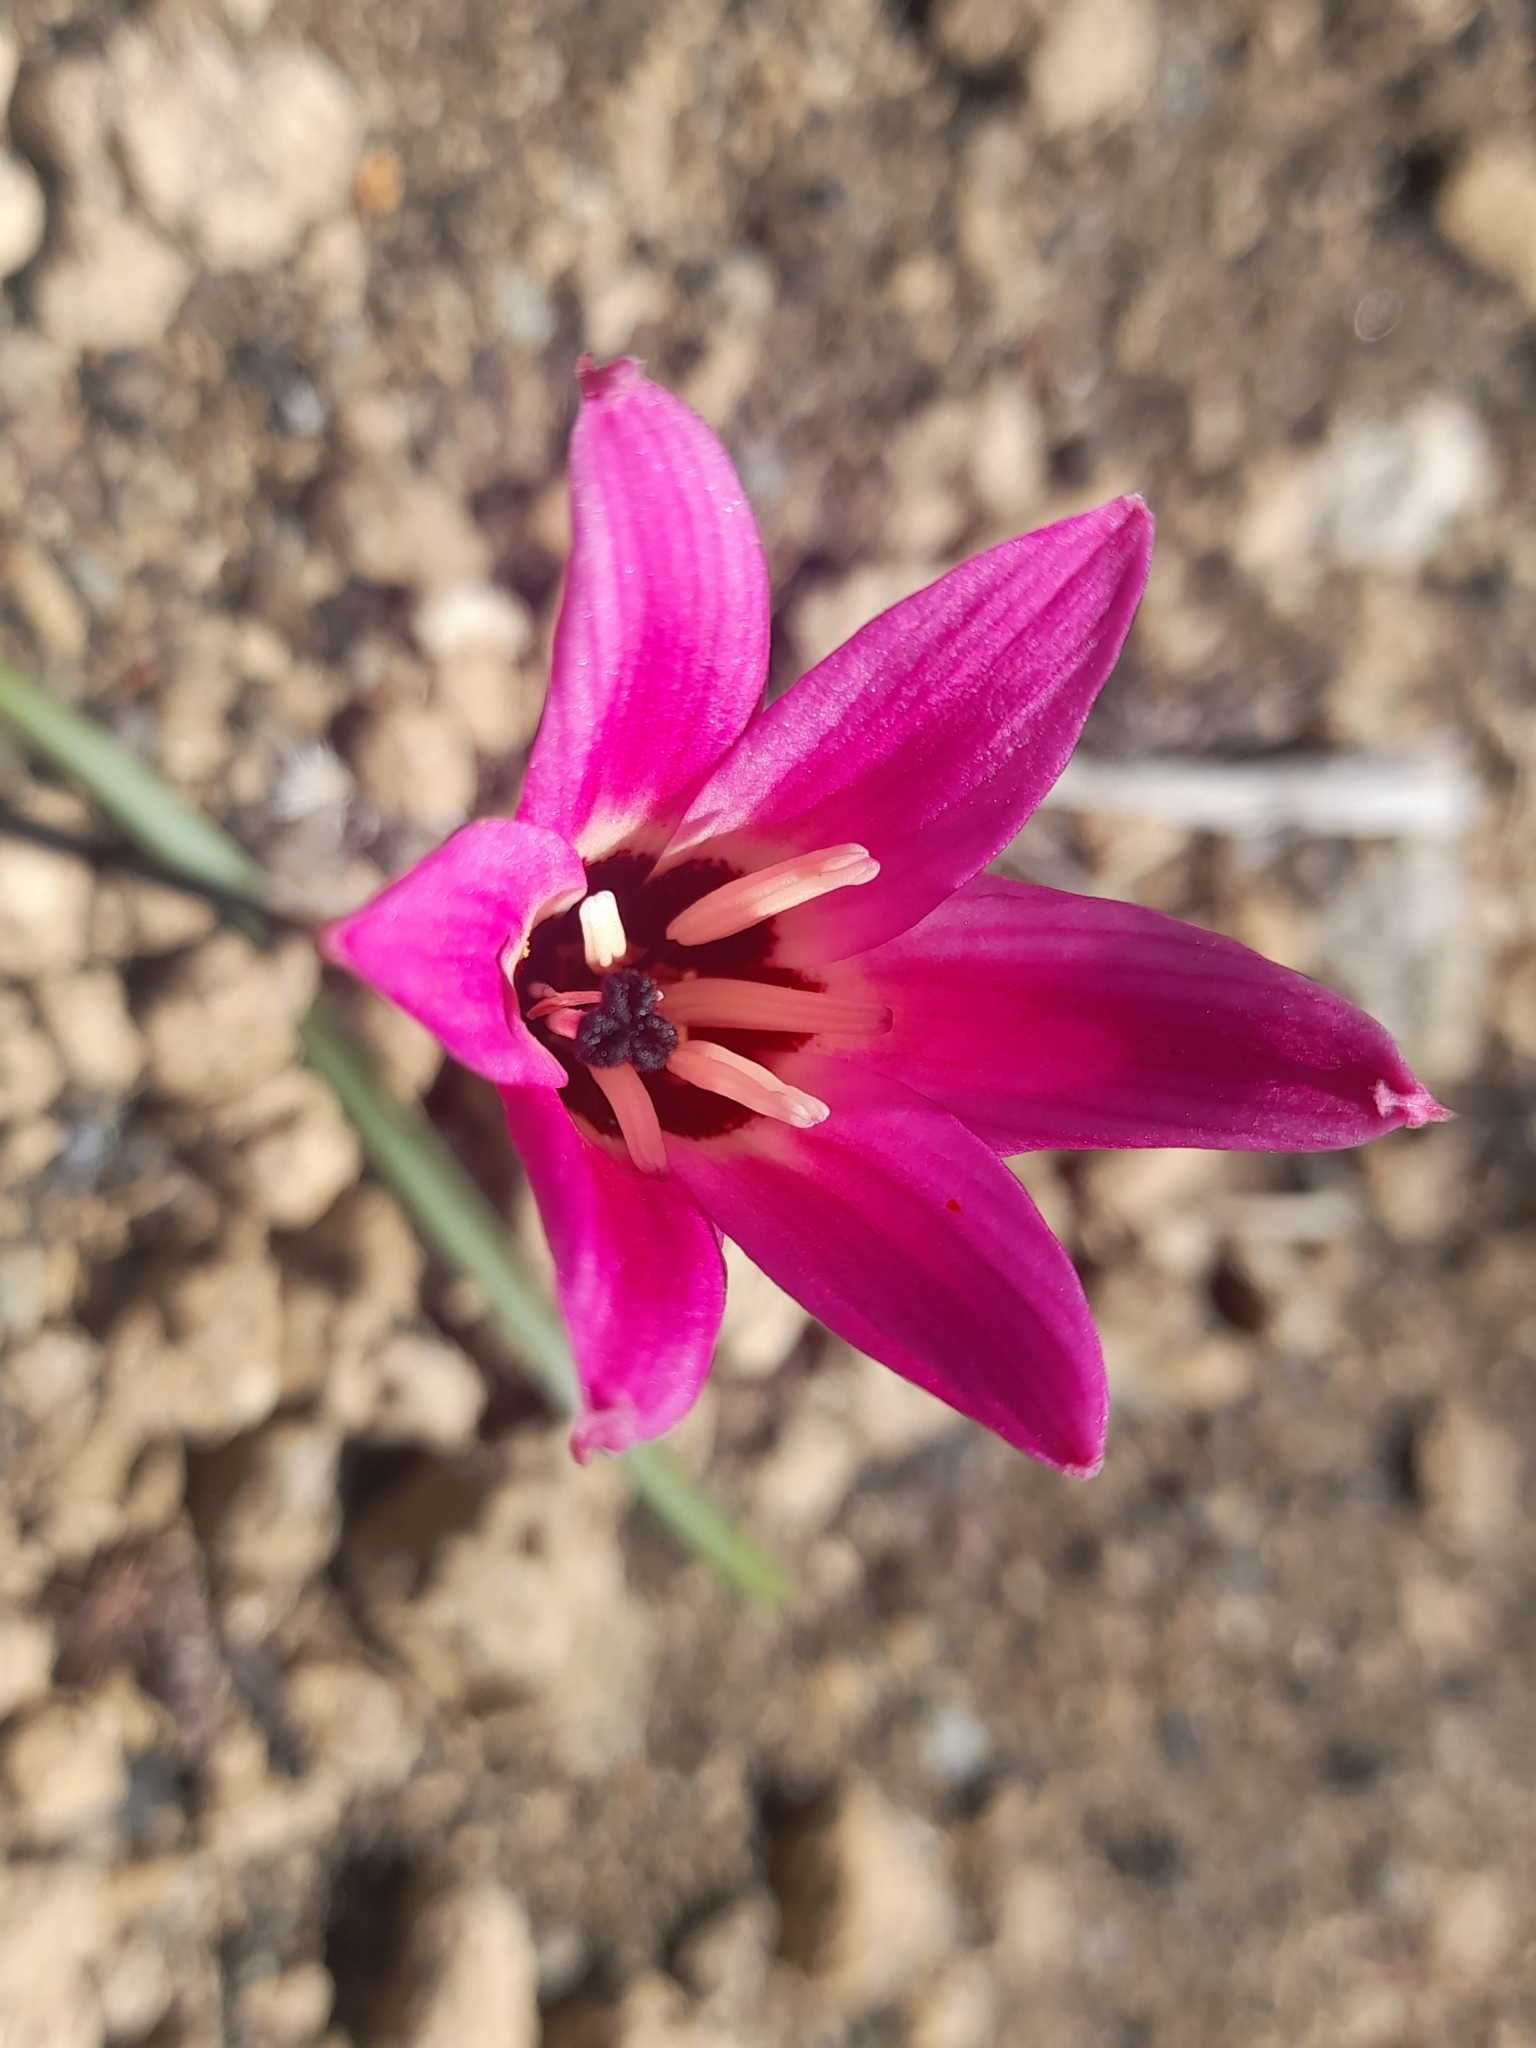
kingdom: Plantae
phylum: Tracheophyta
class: Liliopsida
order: Asparagales
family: Amaryllidaceae
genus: Rhodolirium
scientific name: Rhodolirium andicola
